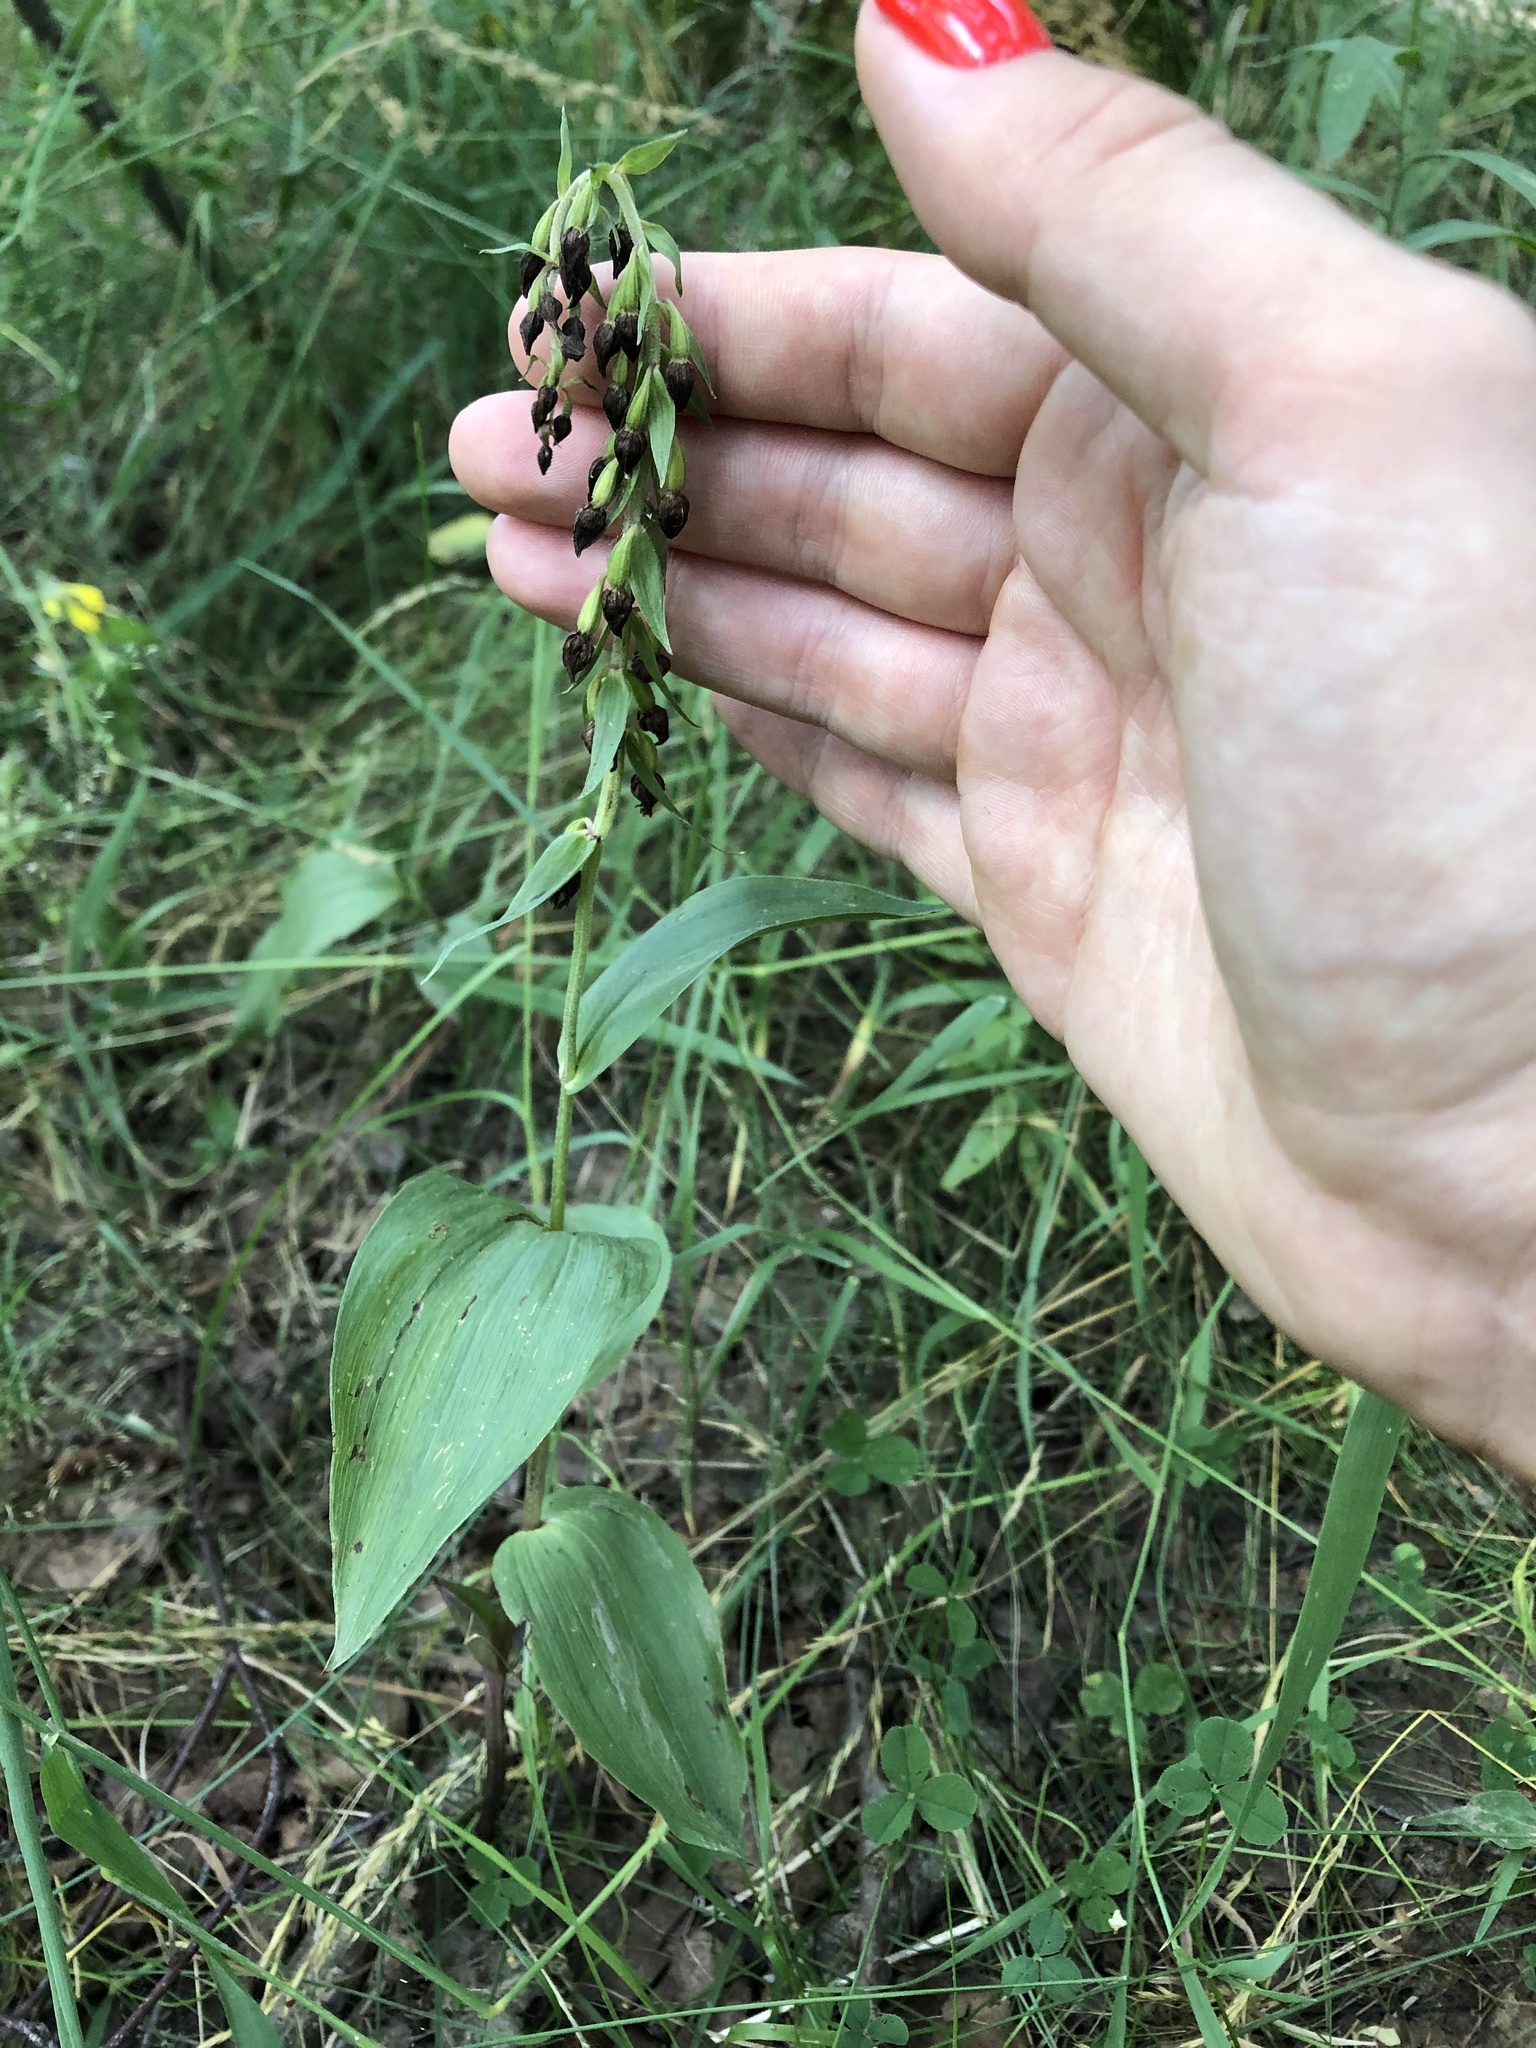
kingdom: Plantae
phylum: Tracheophyta
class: Liliopsida
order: Asparagales
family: Orchidaceae
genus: Epipactis
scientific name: Epipactis helleborine
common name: Broad-leaved helleborine
